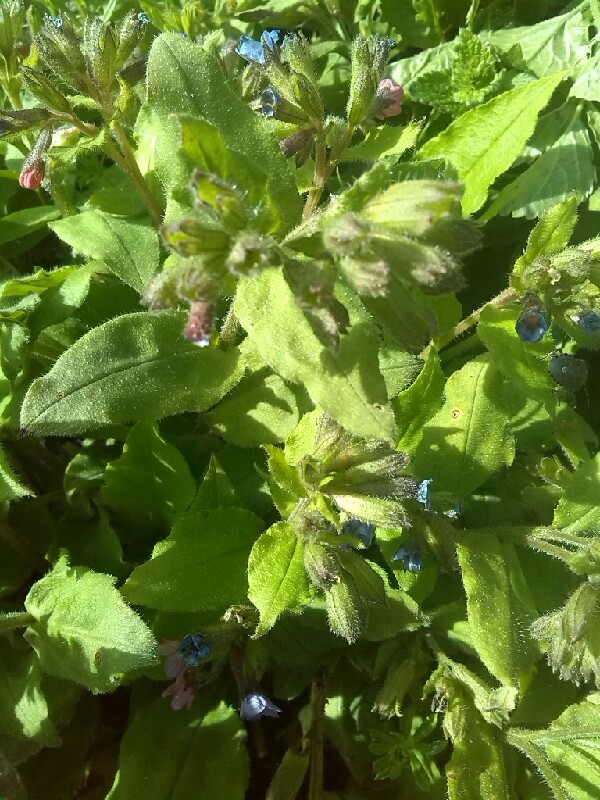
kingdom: Plantae
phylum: Tracheophyta
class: Magnoliopsida
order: Boraginales
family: Boraginaceae
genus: Pulmonaria
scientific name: Pulmonaria obscura
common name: Suffolk lungwort
